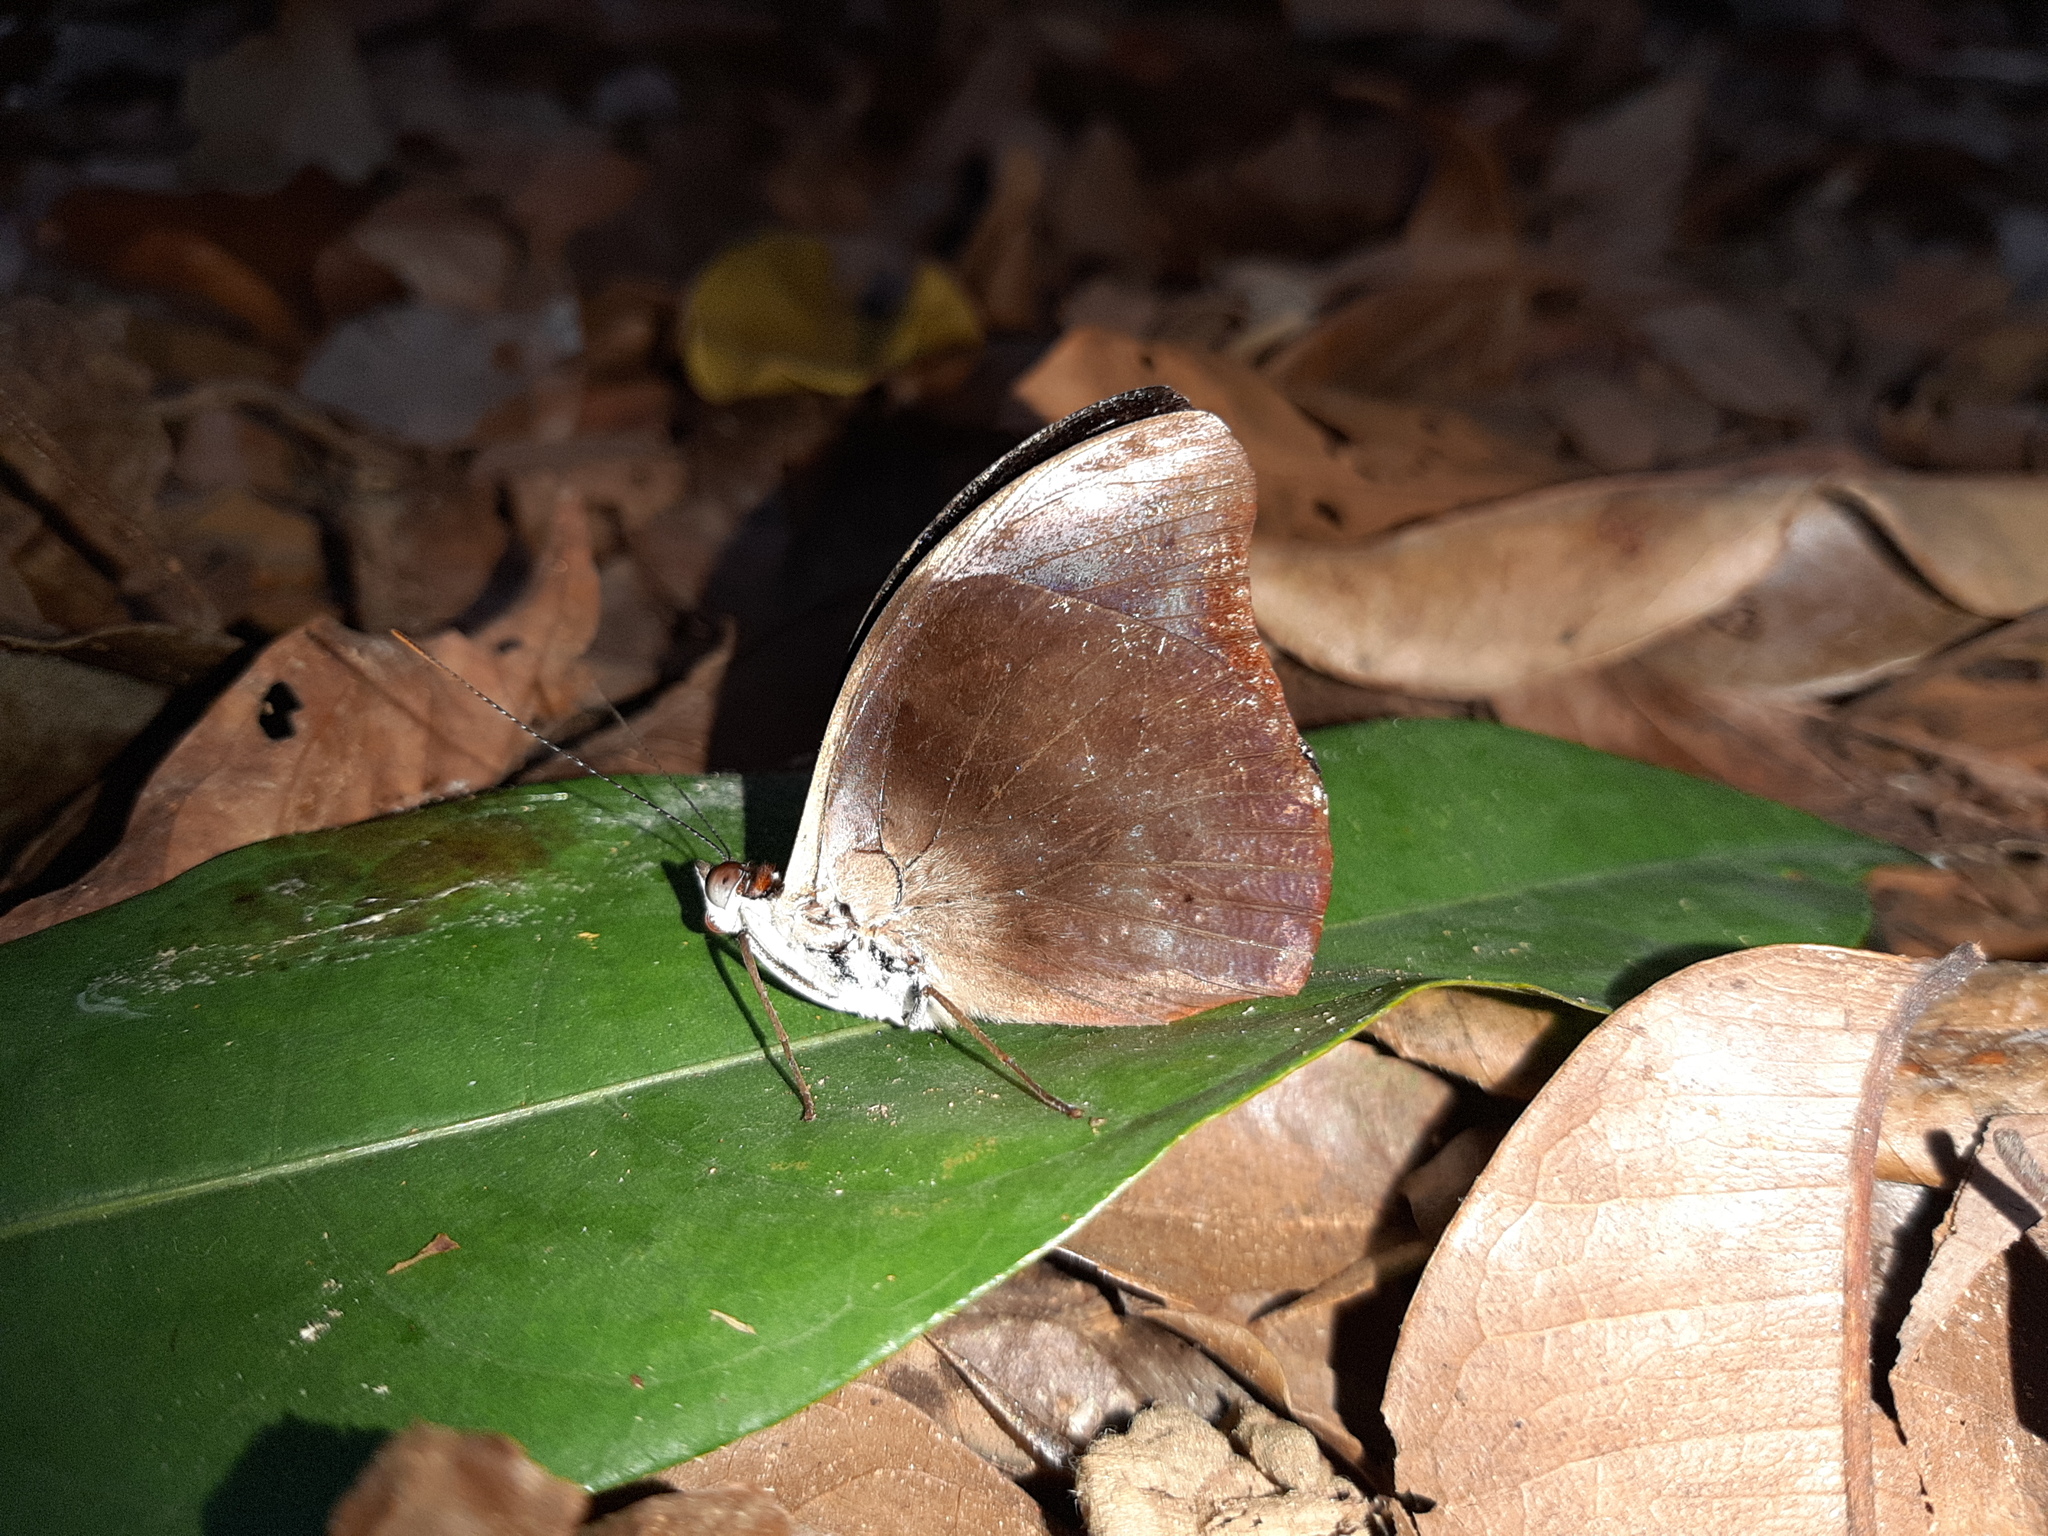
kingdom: Animalia
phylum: Arthropoda
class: Insecta
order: Lepidoptera
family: Nymphalidae
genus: Catonephele
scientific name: Catonephele acontius
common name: Unspotted firewing
